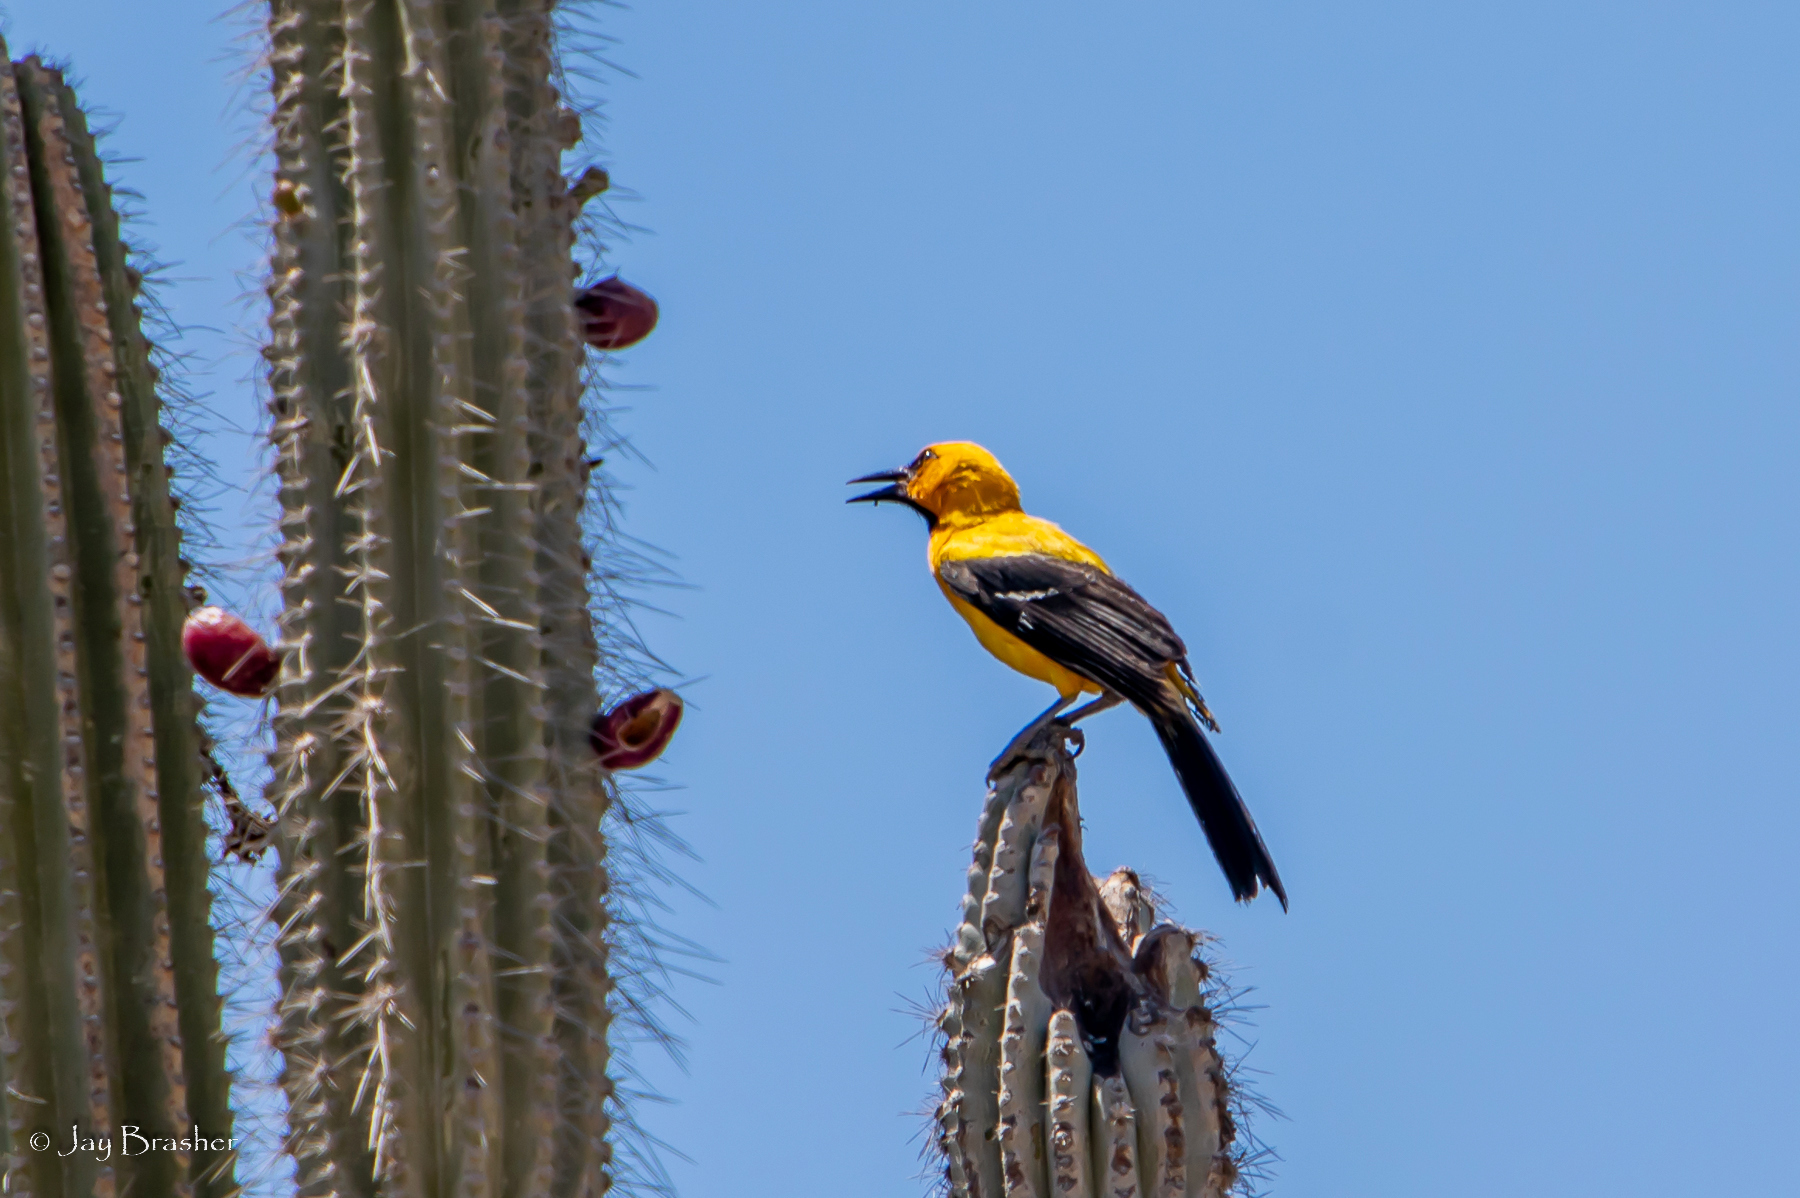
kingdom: Animalia
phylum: Chordata
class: Aves
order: Passeriformes
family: Icteridae
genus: Icterus
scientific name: Icterus nigrogularis
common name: Yellow oriole
